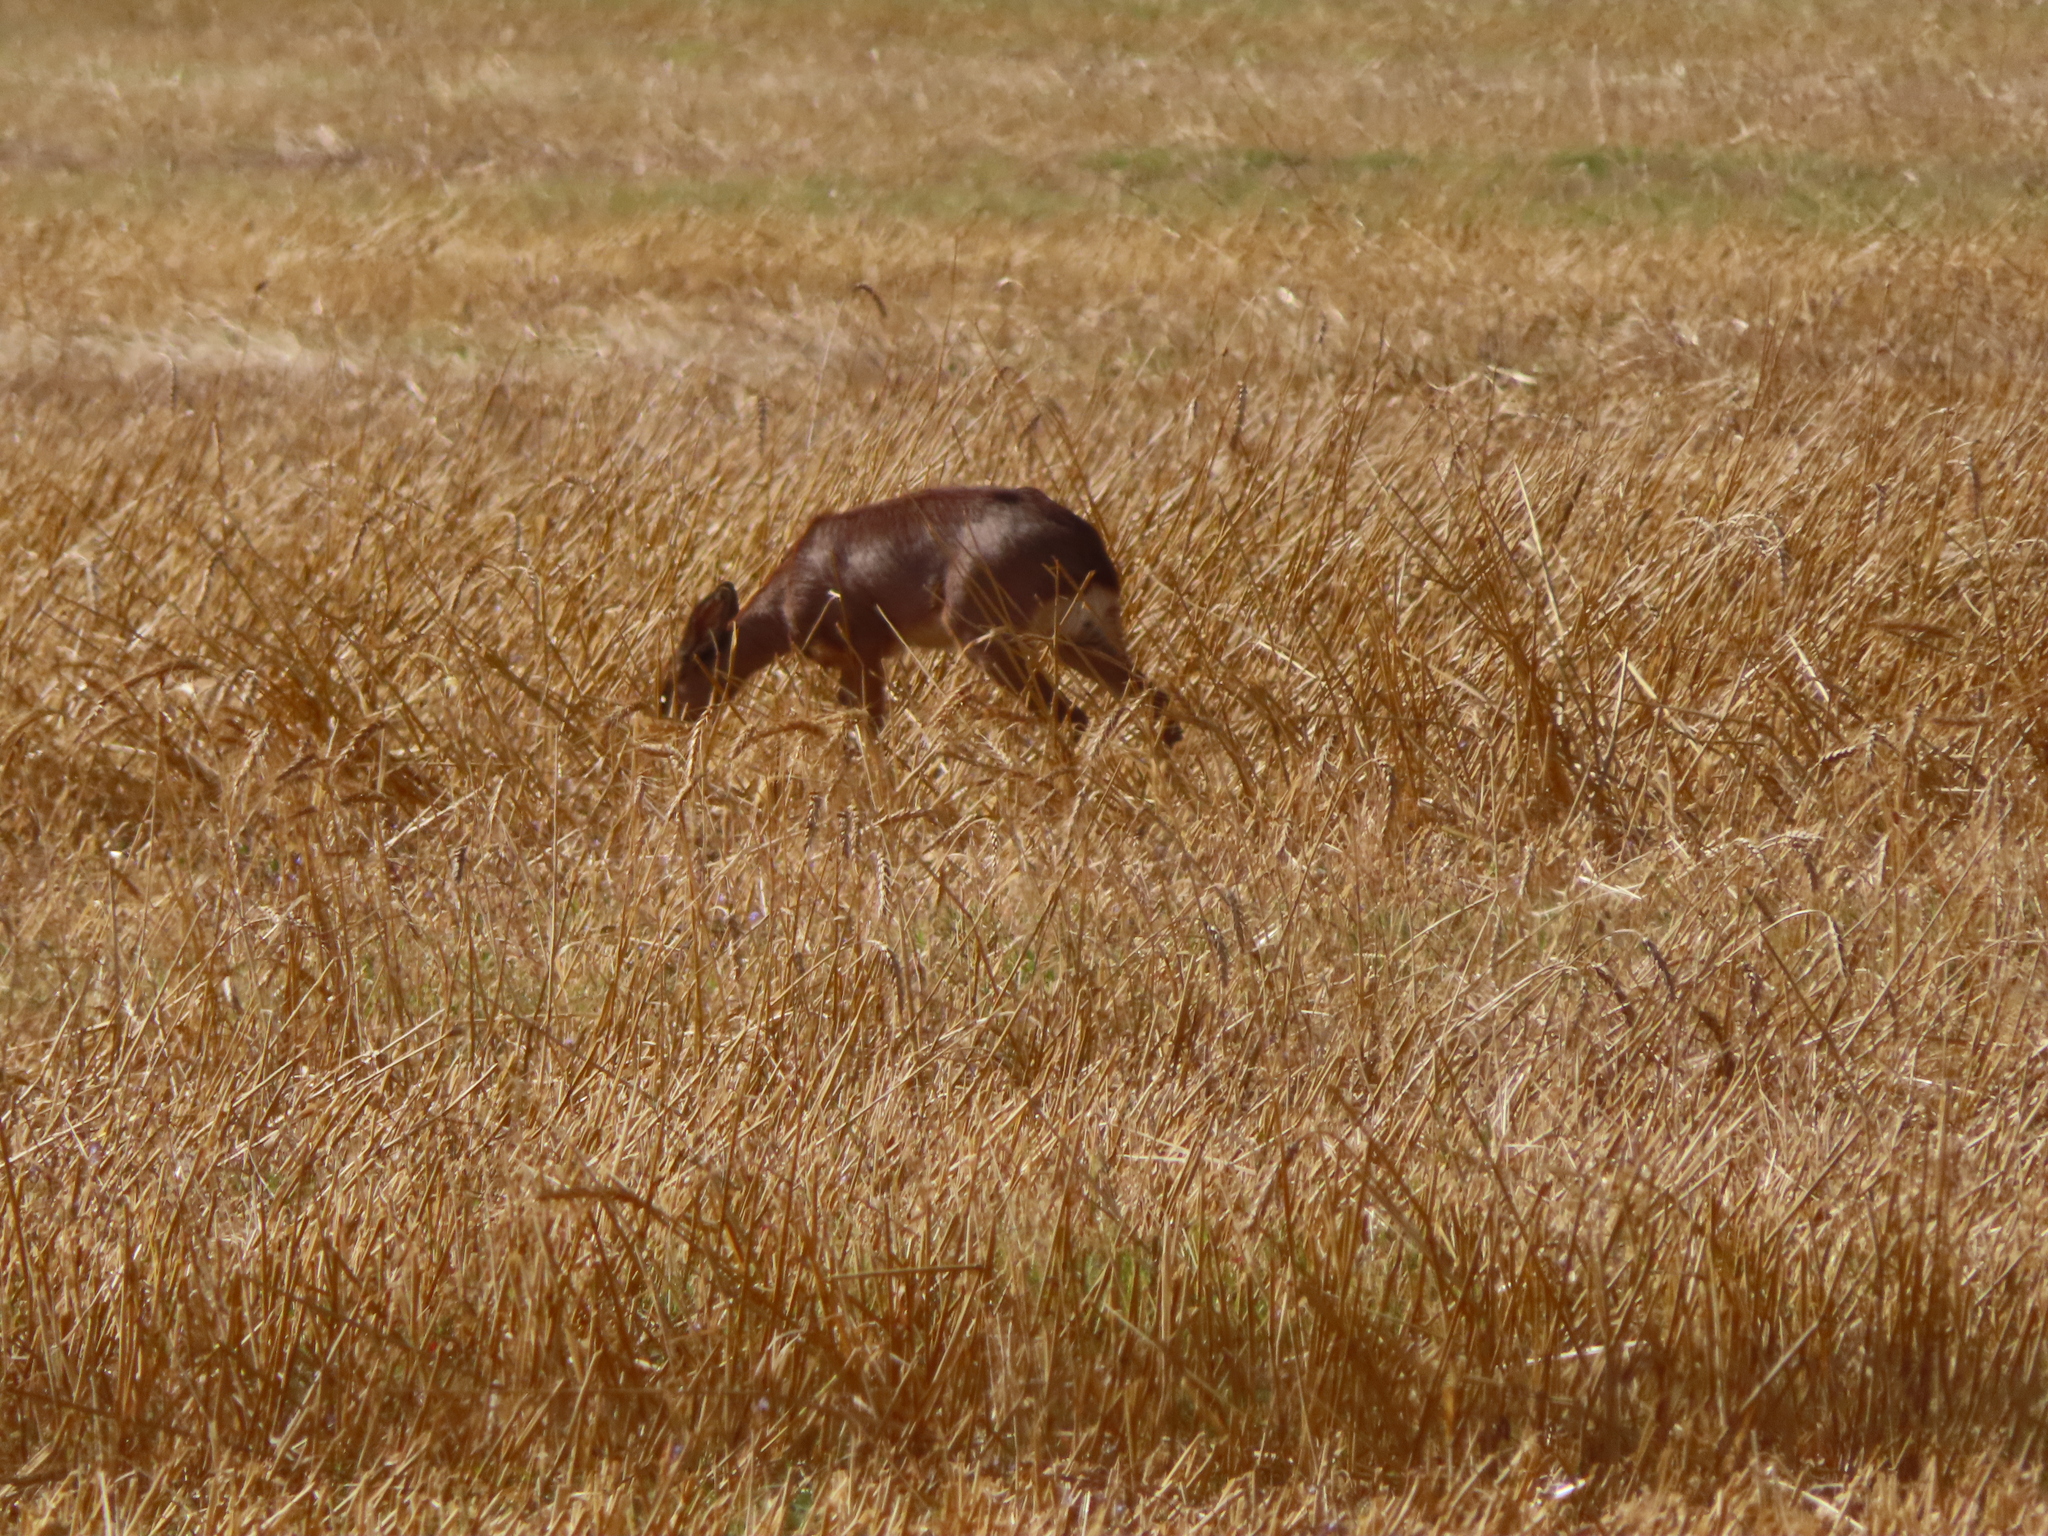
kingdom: Animalia
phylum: Chordata
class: Mammalia
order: Artiodactyla
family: Bovidae
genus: Raphicerus
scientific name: Raphicerus campestris
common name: Steenbok
